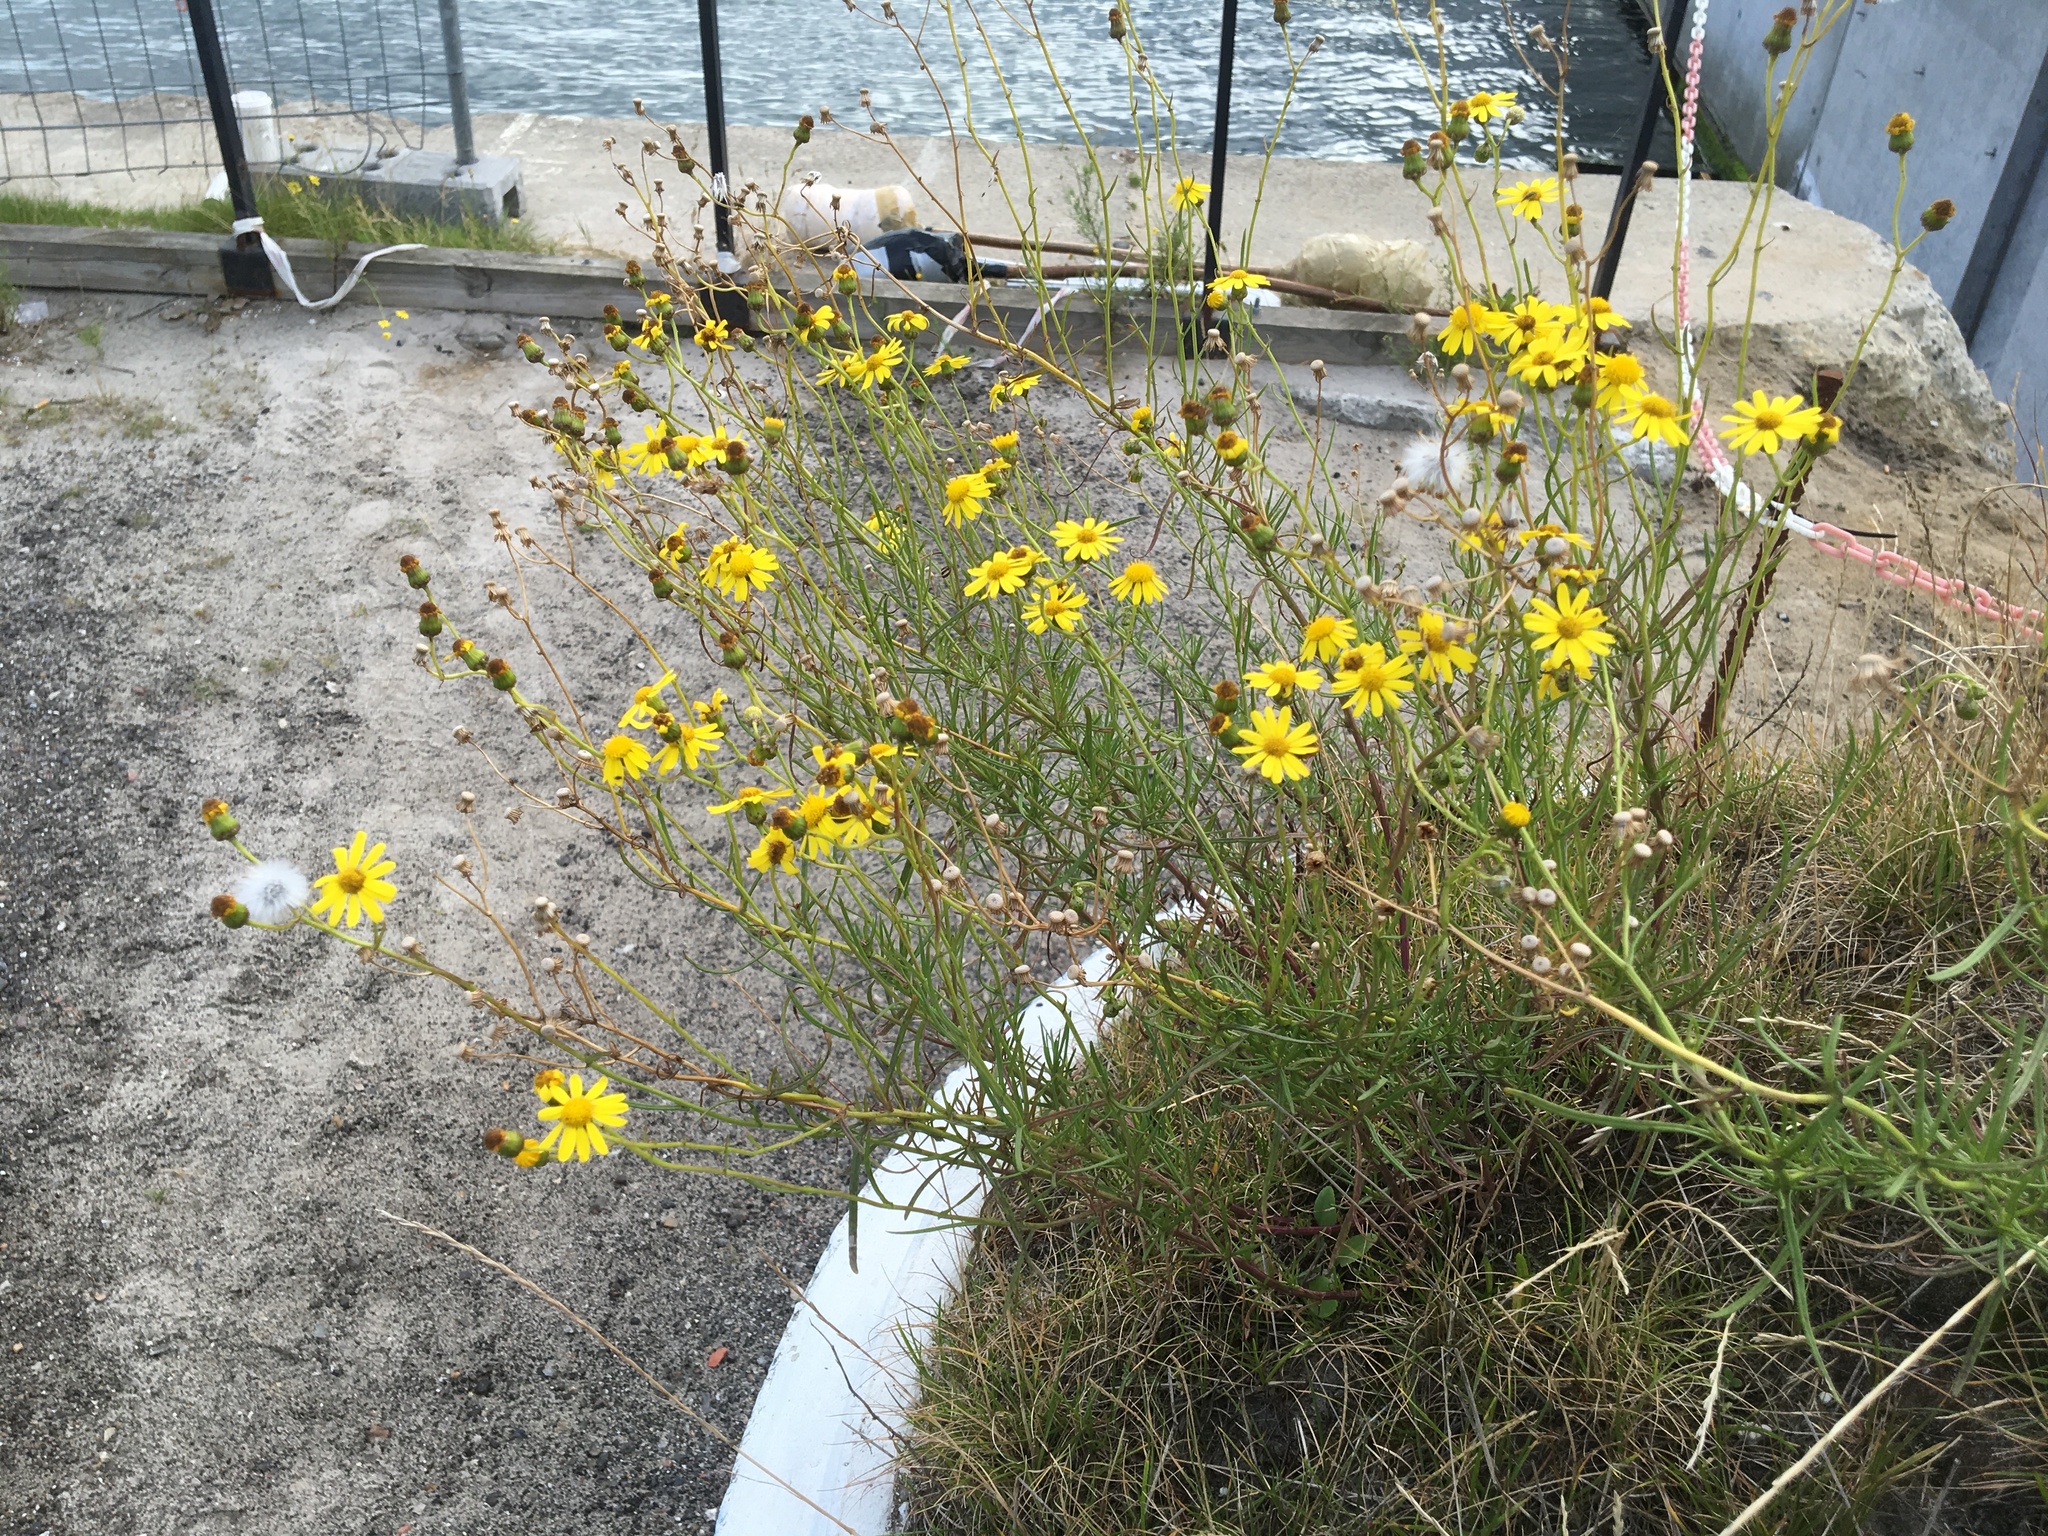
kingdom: Plantae
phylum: Tracheophyta
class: Magnoliopsida
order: Asterales
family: Asteraceae
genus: Senecio
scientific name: Senecio inaequidens
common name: Narrow-leaved ragwort
